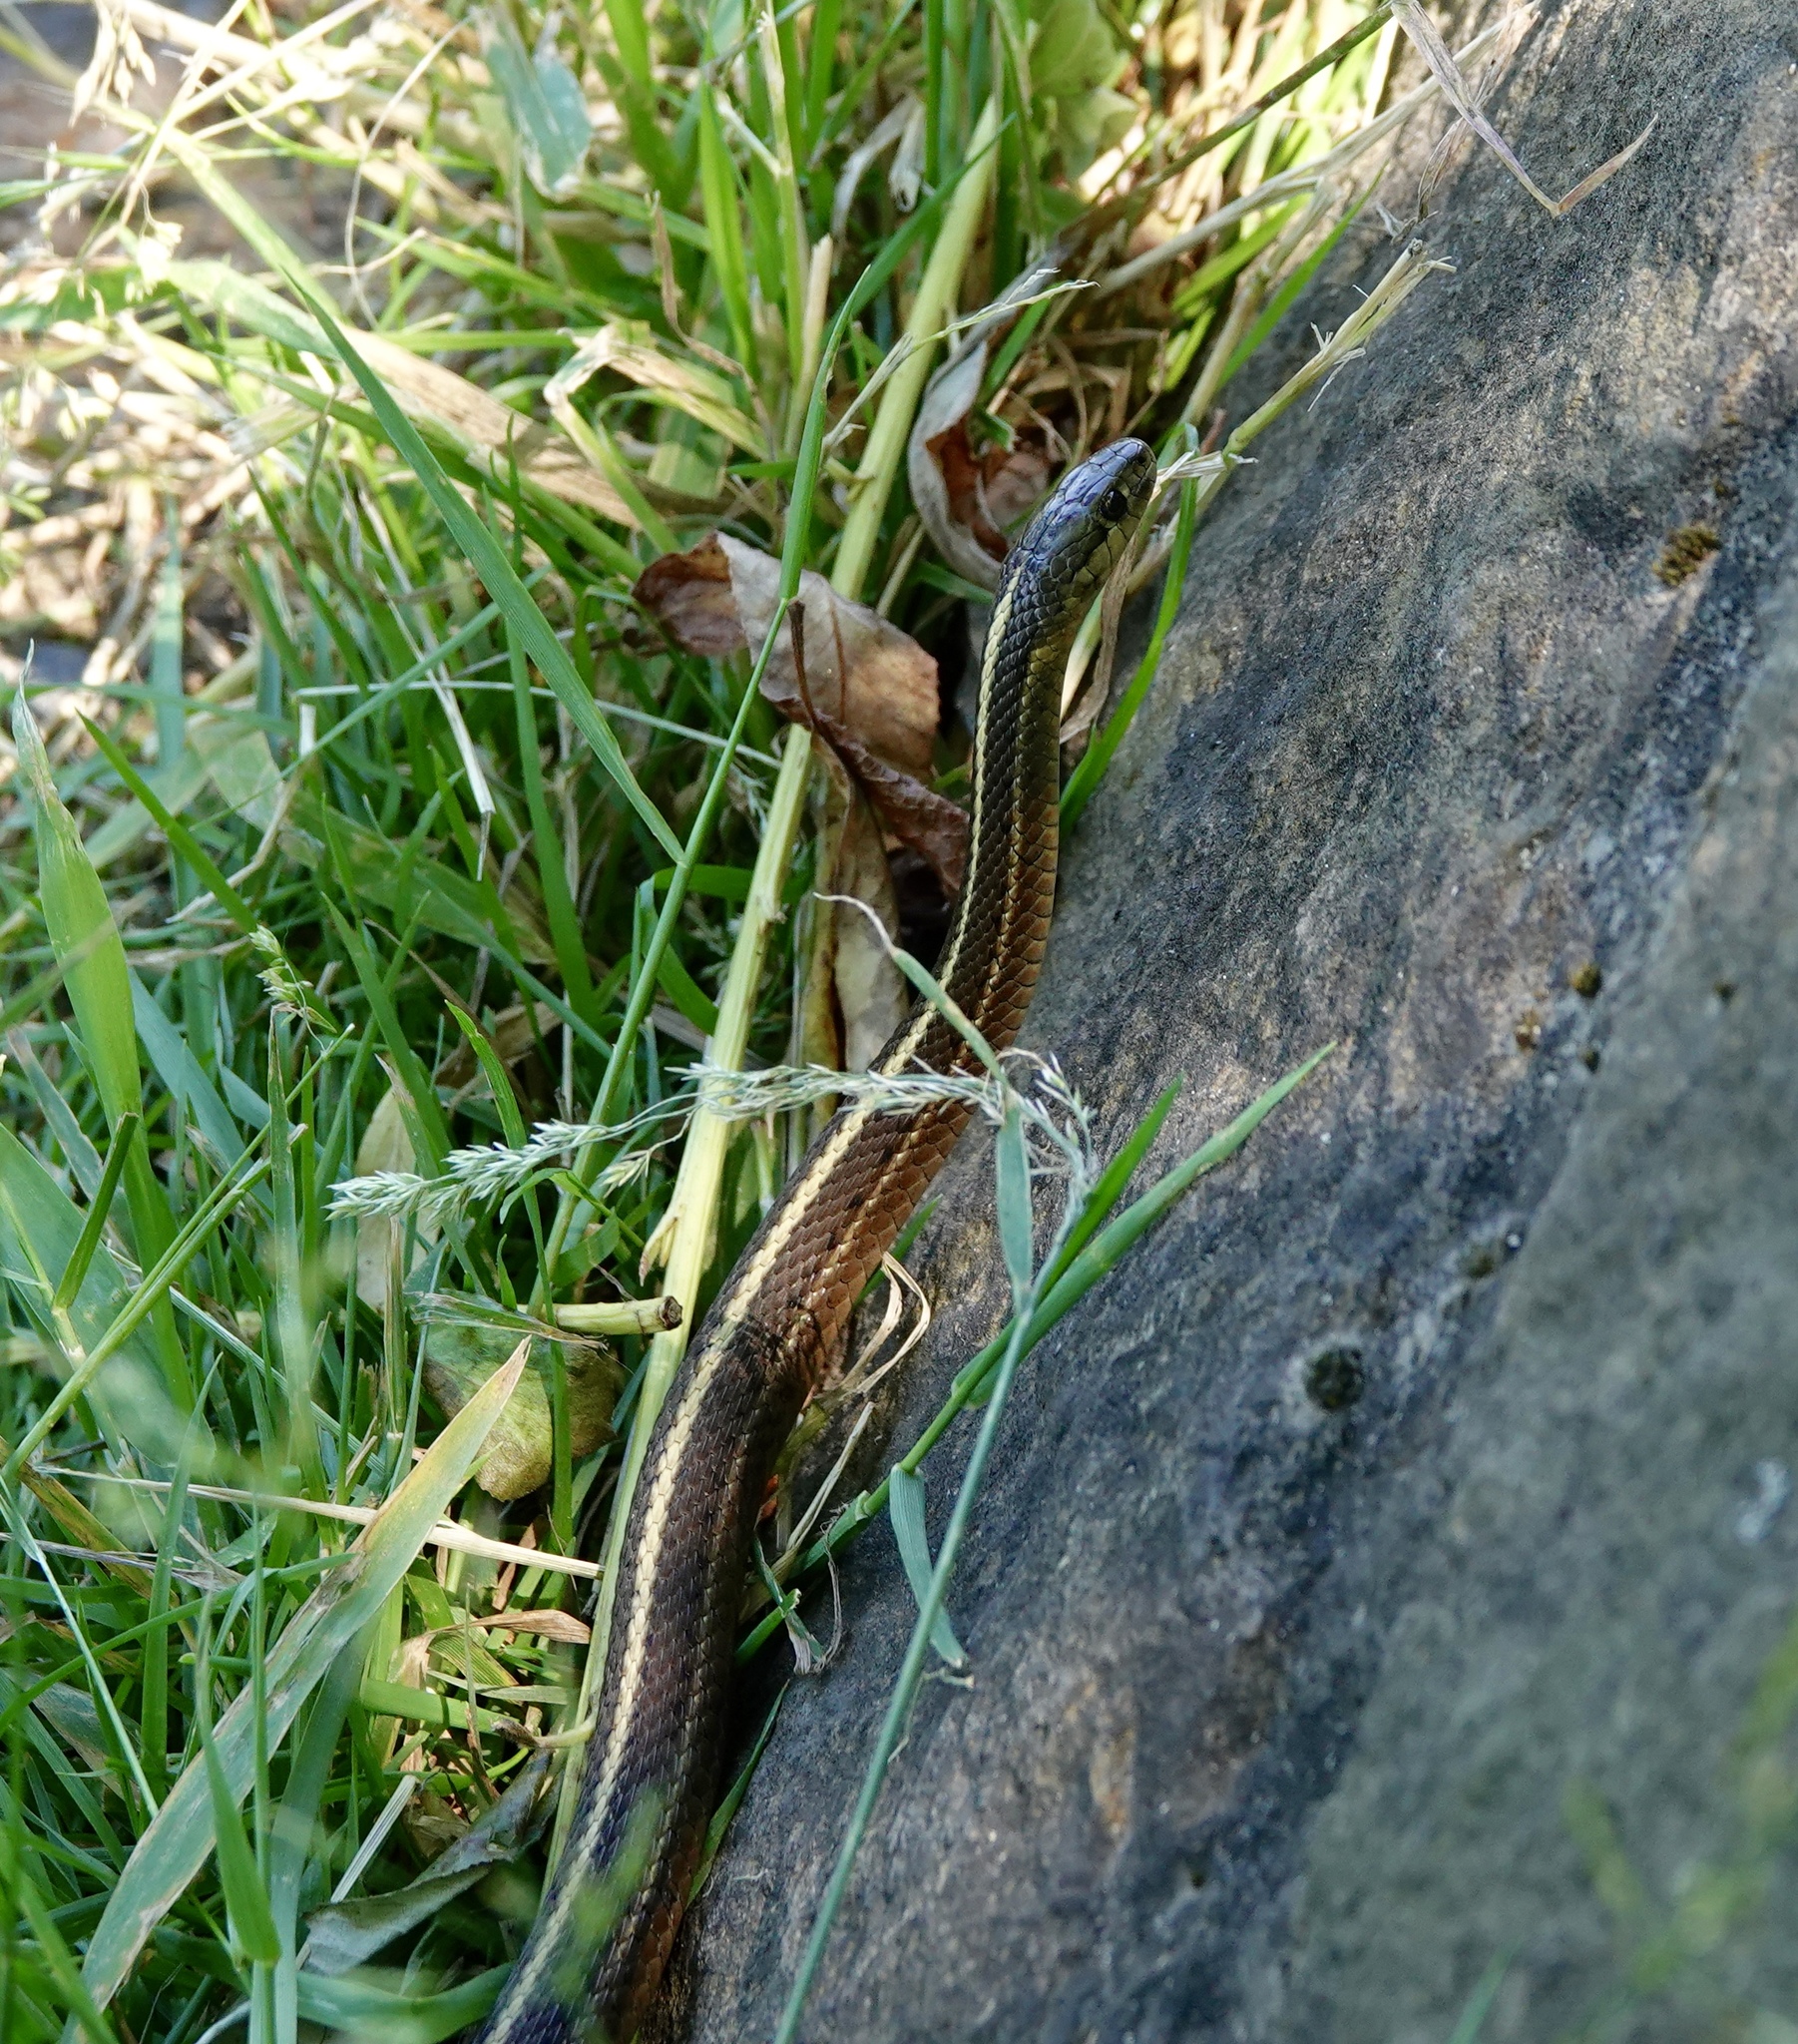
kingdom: Animalia
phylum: Chordata
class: Squamata
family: Colubridae
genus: Thamnophis
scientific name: Thamnophis ordinoides
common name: Northwestern garter snake
